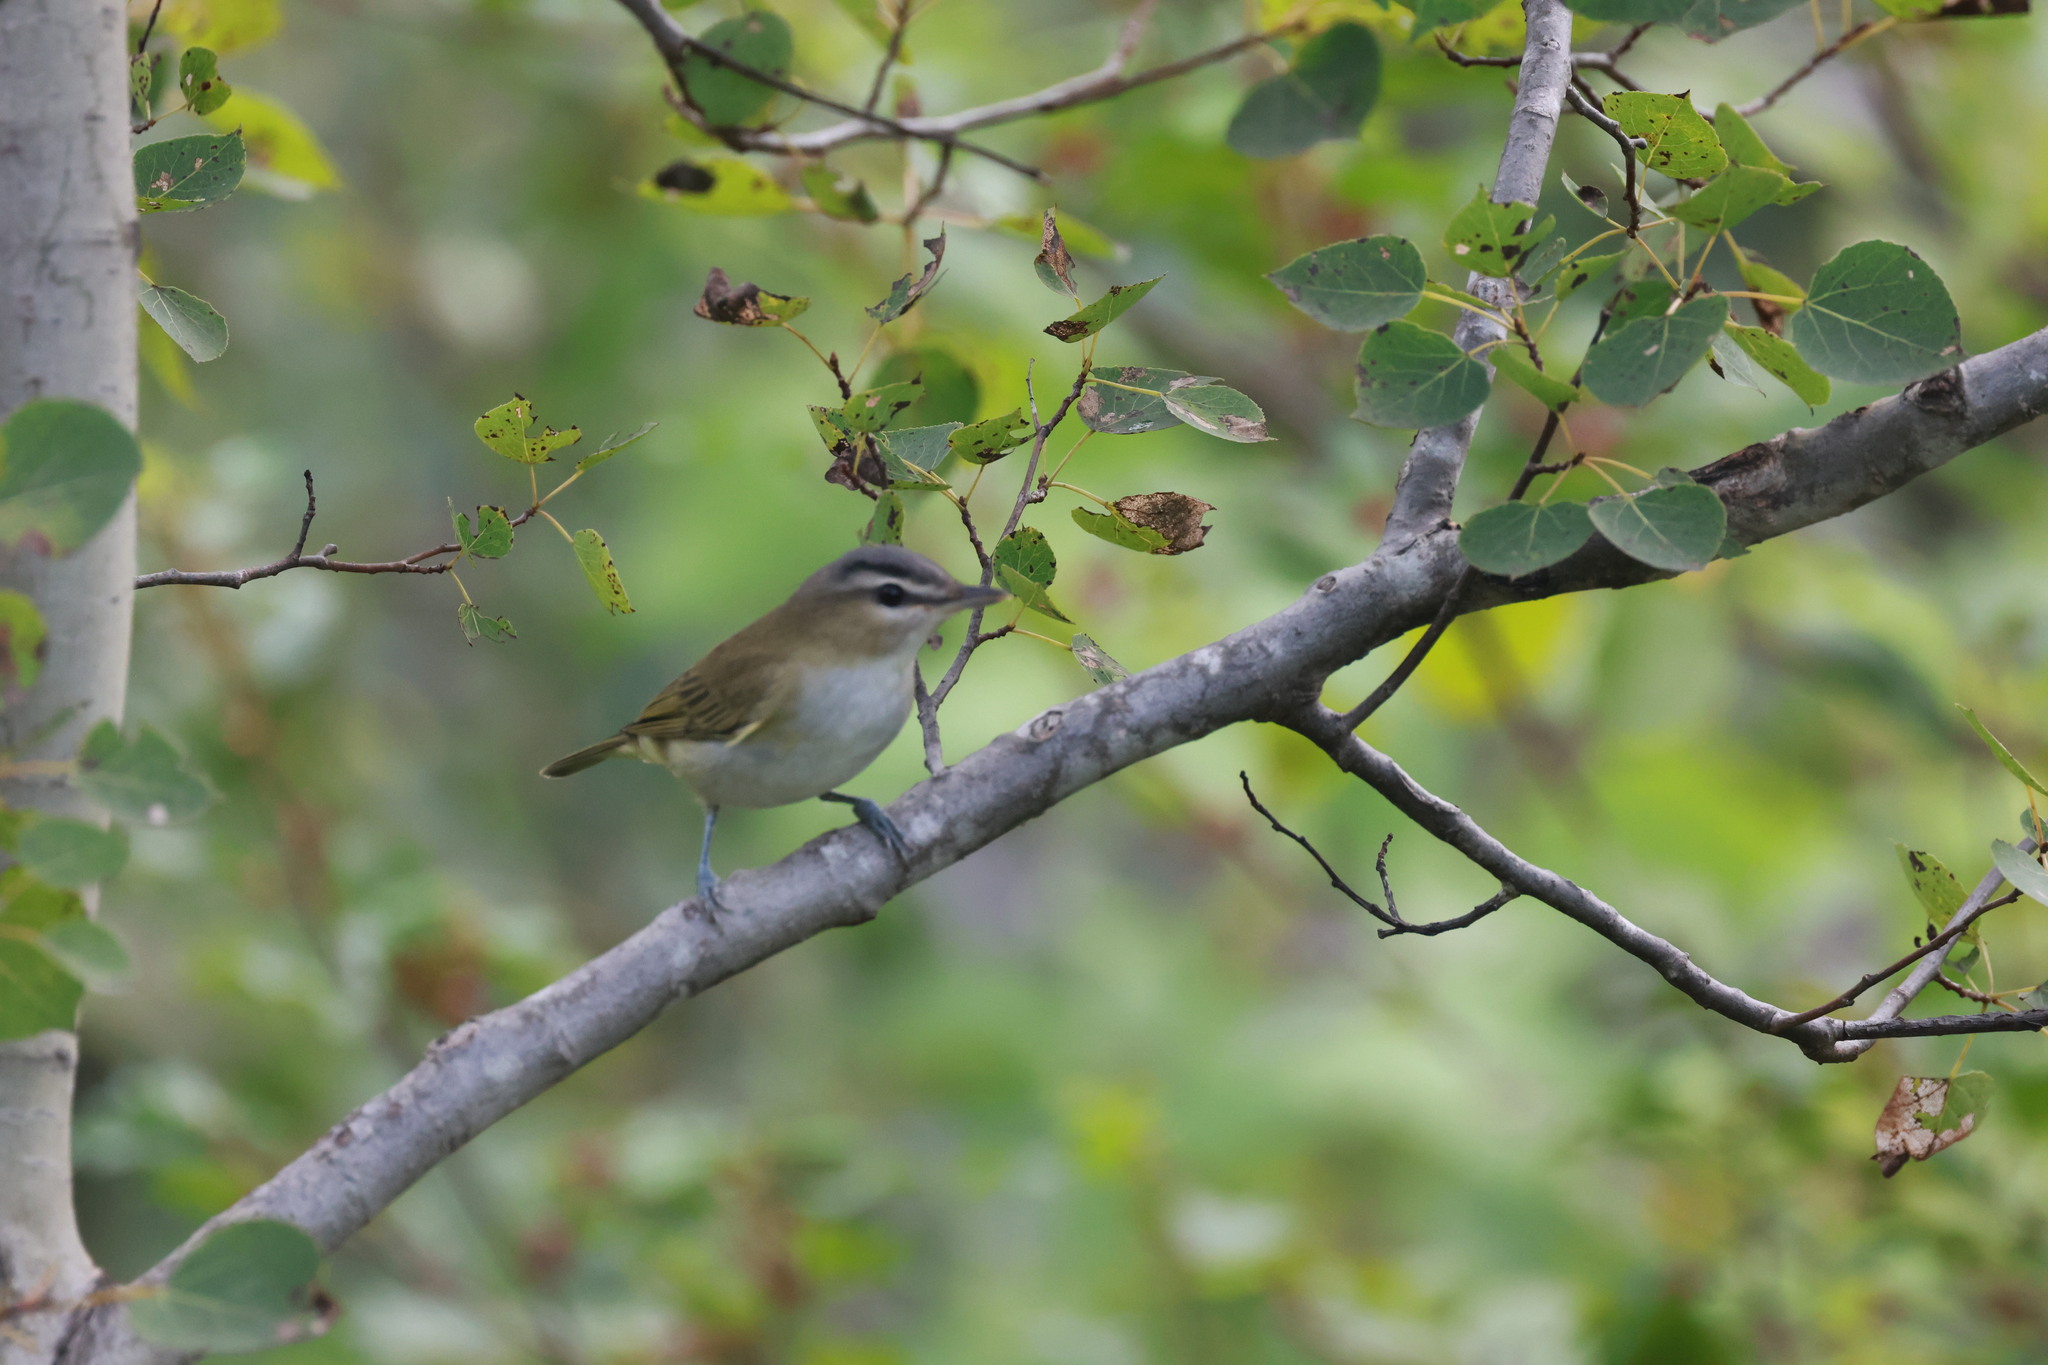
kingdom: Animalia
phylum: Chordata
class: Aves
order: Passeriformes
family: Vireonidae
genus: Vireo
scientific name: Vireo olivaceus
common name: Red-eyed vireo
